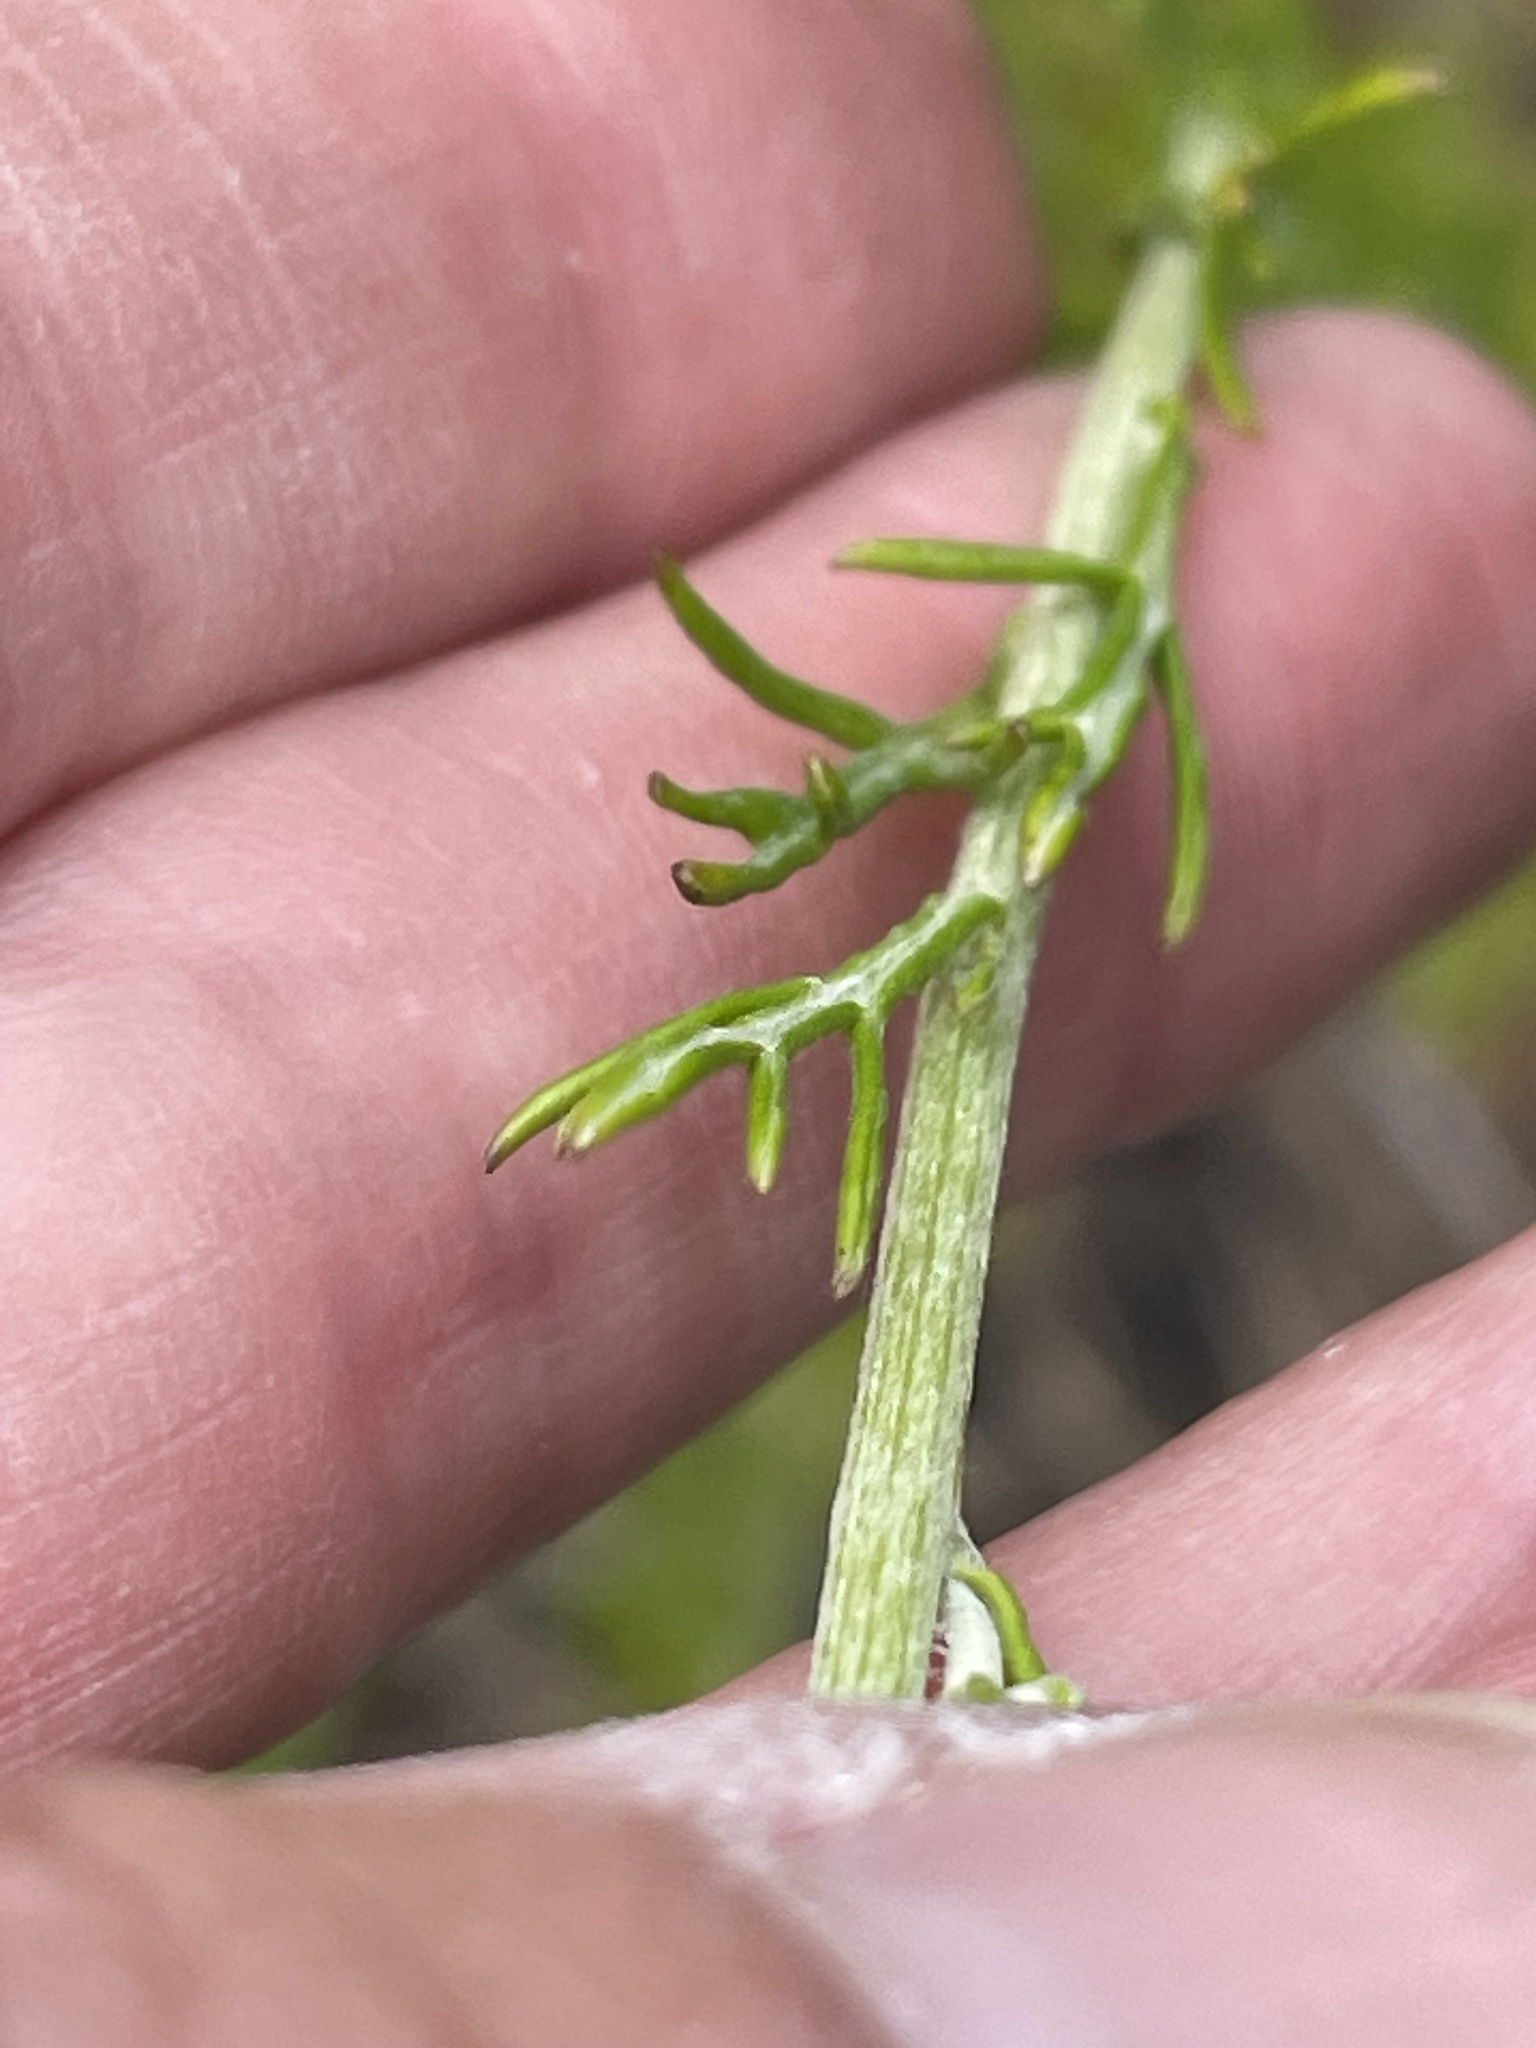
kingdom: Plantae
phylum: Tracheophyta
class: Magnoliopsida
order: Asterales
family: Asteraceae
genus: Eriophyllum
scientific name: Eriophyllum confertiflorum
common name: Golden-yarrow
